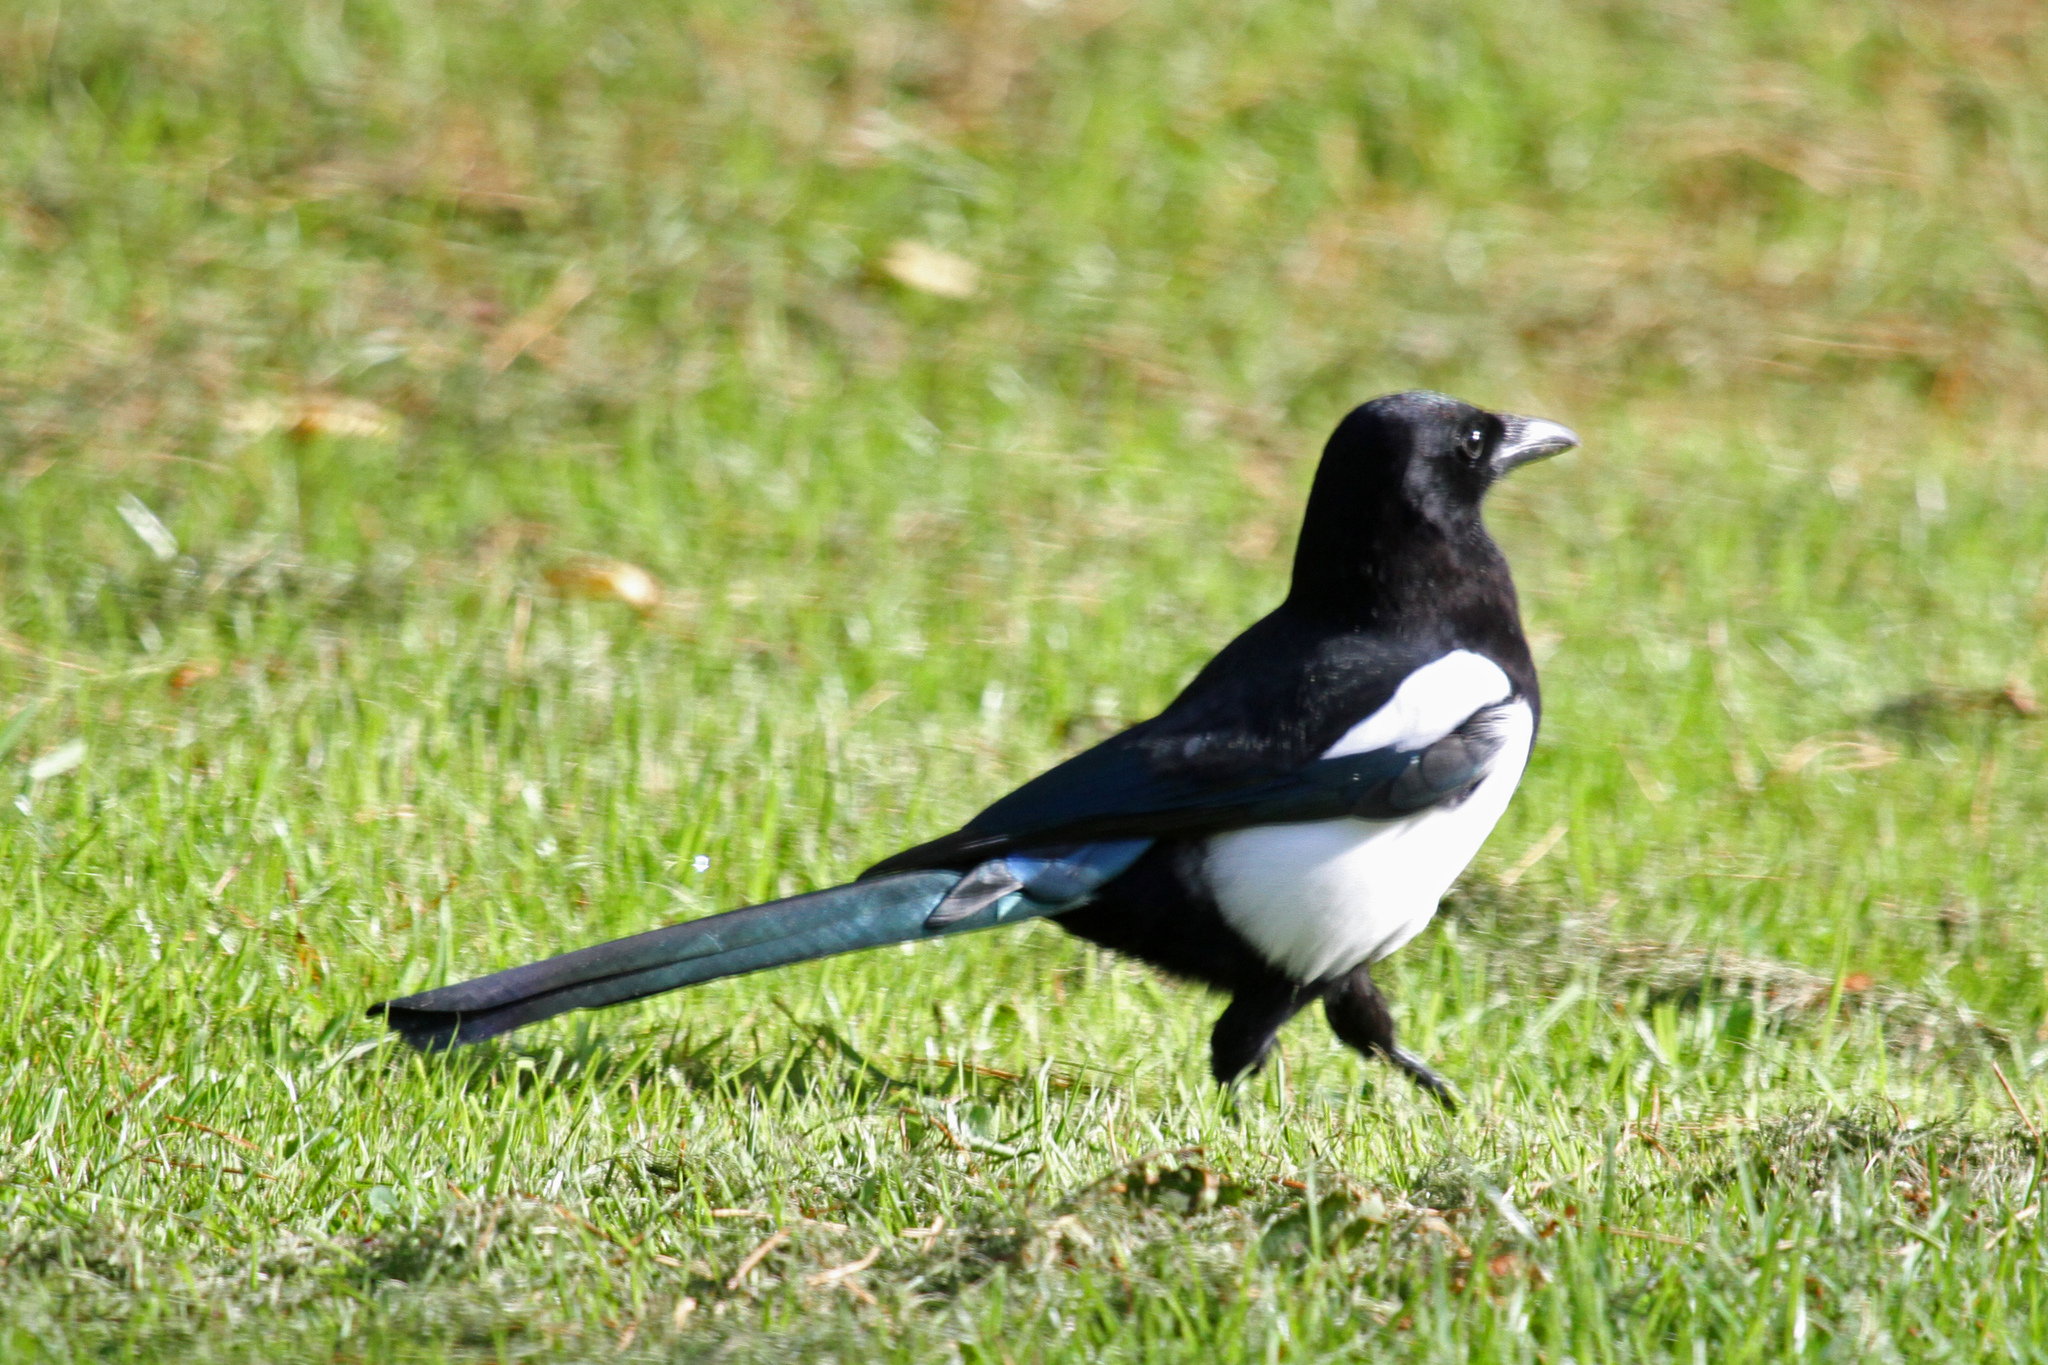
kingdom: Animalia
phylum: Chordata
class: Aves
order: Passeriformes
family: Corvidae
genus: Pica
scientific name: Pica pica
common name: Eurasian magpie
